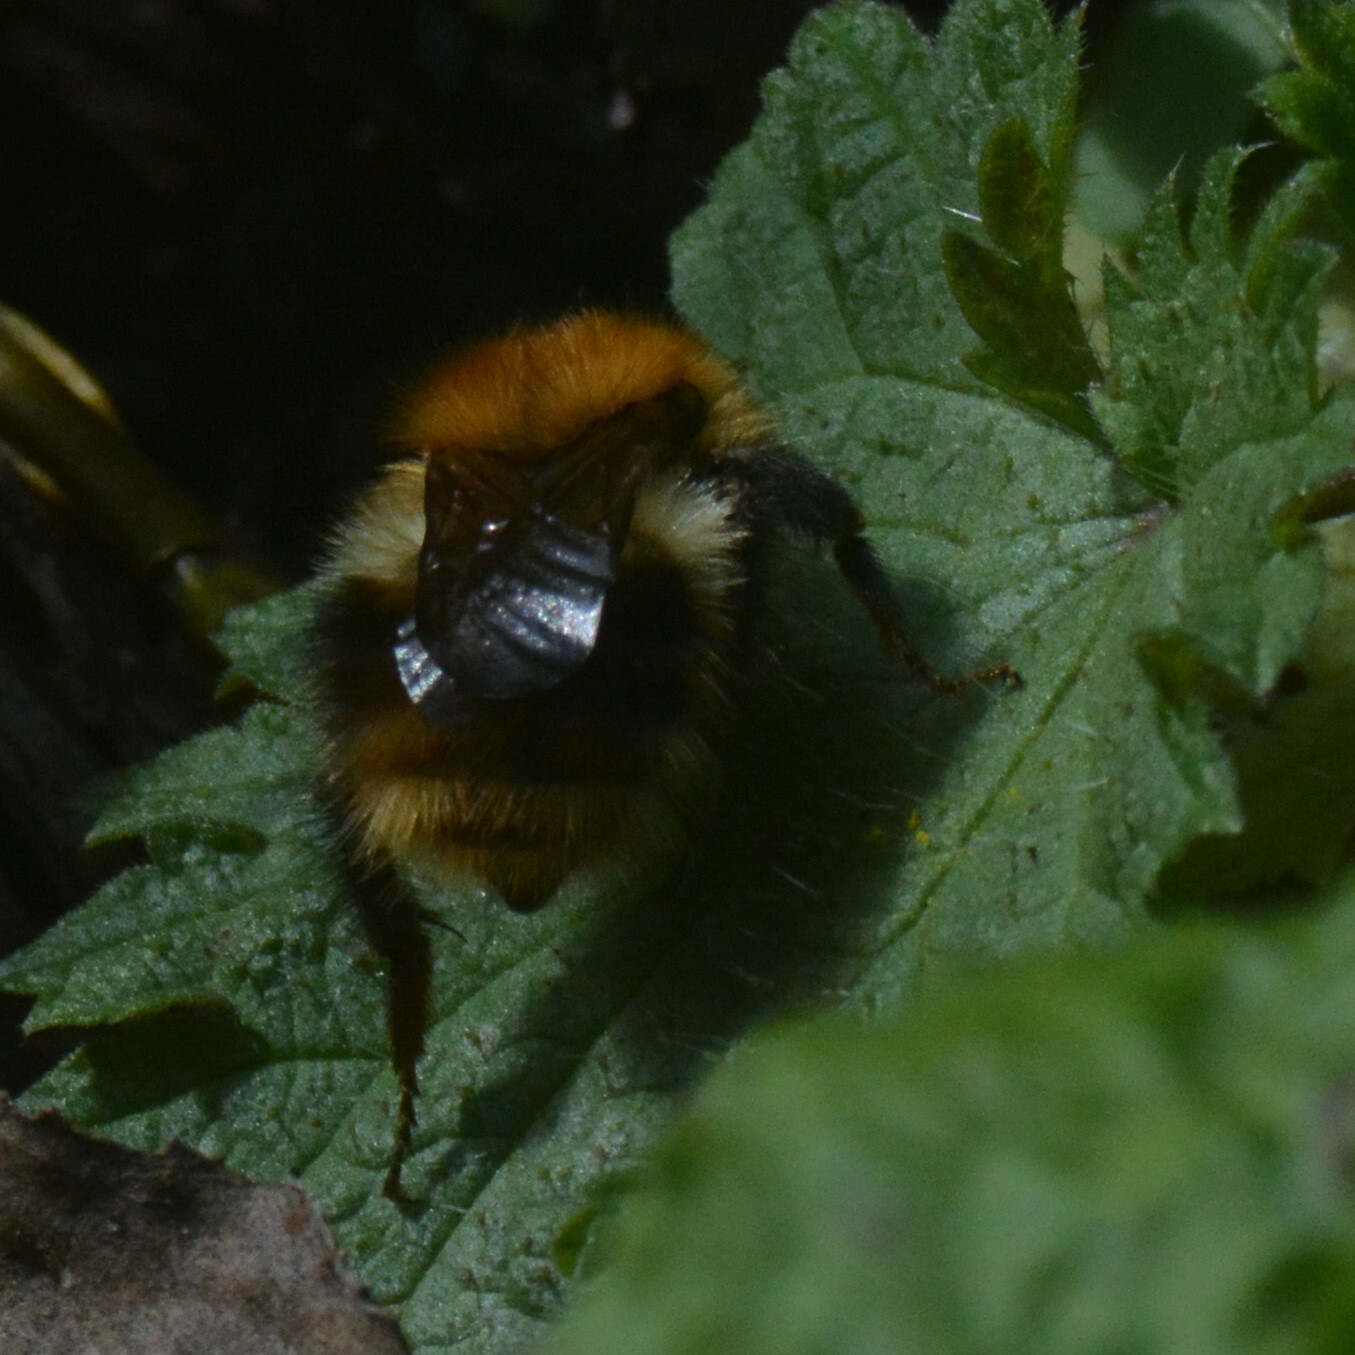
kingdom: Animalia
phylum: Arthropoda
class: Insecta
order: Hymenoptera
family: Apidae
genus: Bombus
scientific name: Bombus pascuorum
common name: Common carder bee
